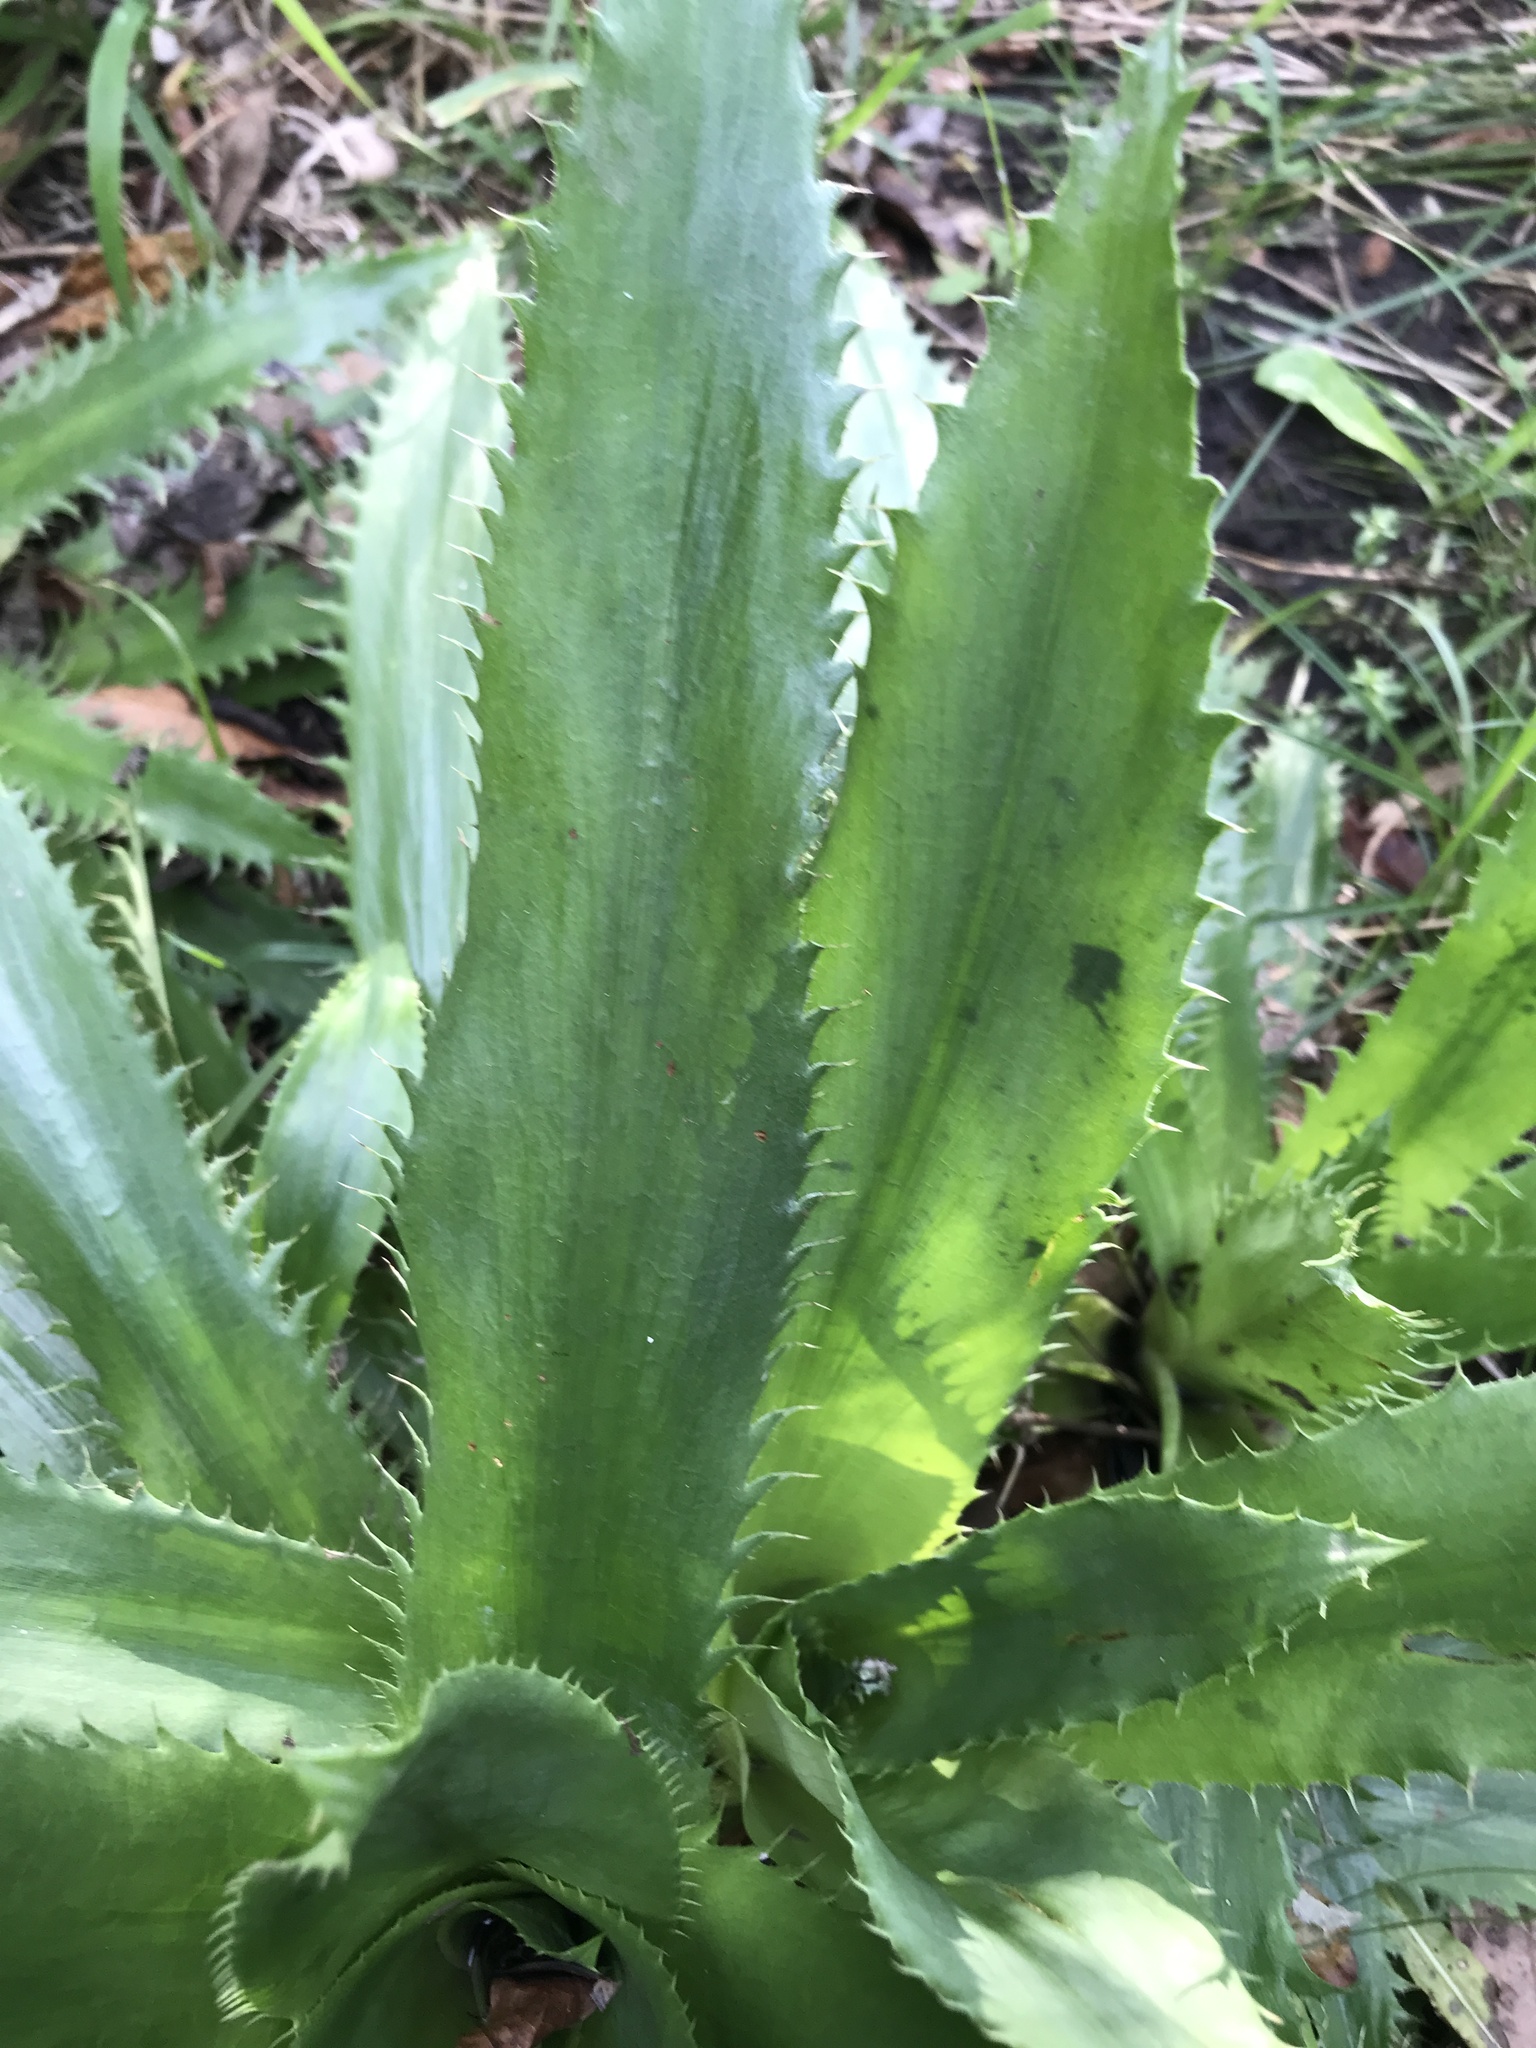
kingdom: Plantae
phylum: Tracheophyta
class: Magnoliopsida
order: Apiales
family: Apiaceae
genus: Eryngium
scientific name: Eryngium serra
